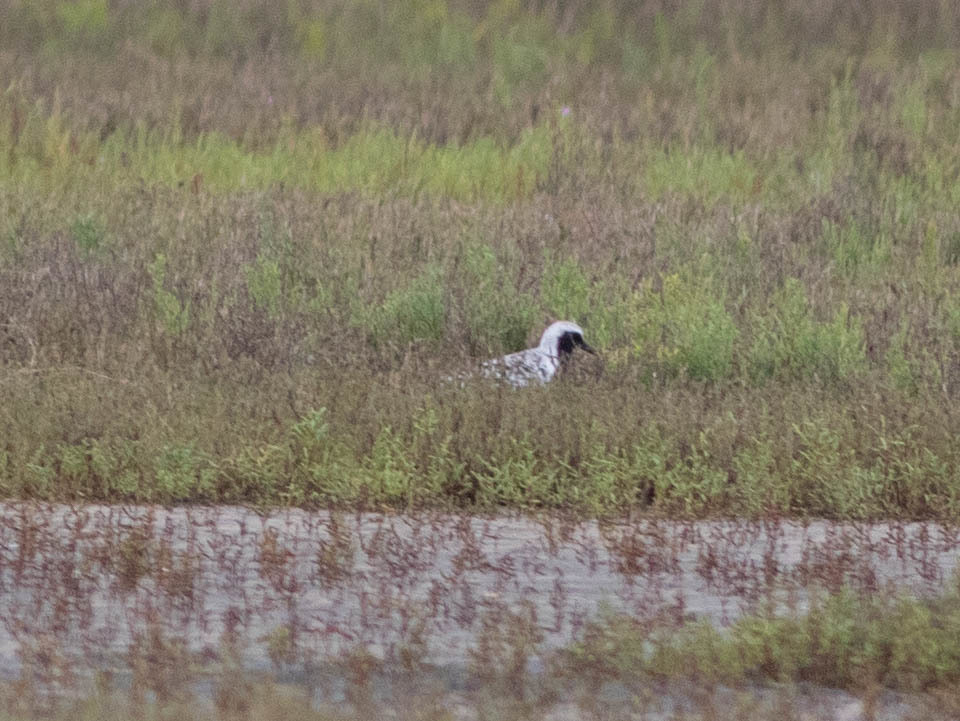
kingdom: Animalia
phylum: Chordata
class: Aves
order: Charadriiformes
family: Charadriidae
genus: Pluvialis
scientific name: Pluvialis squatarola
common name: Grey plover
